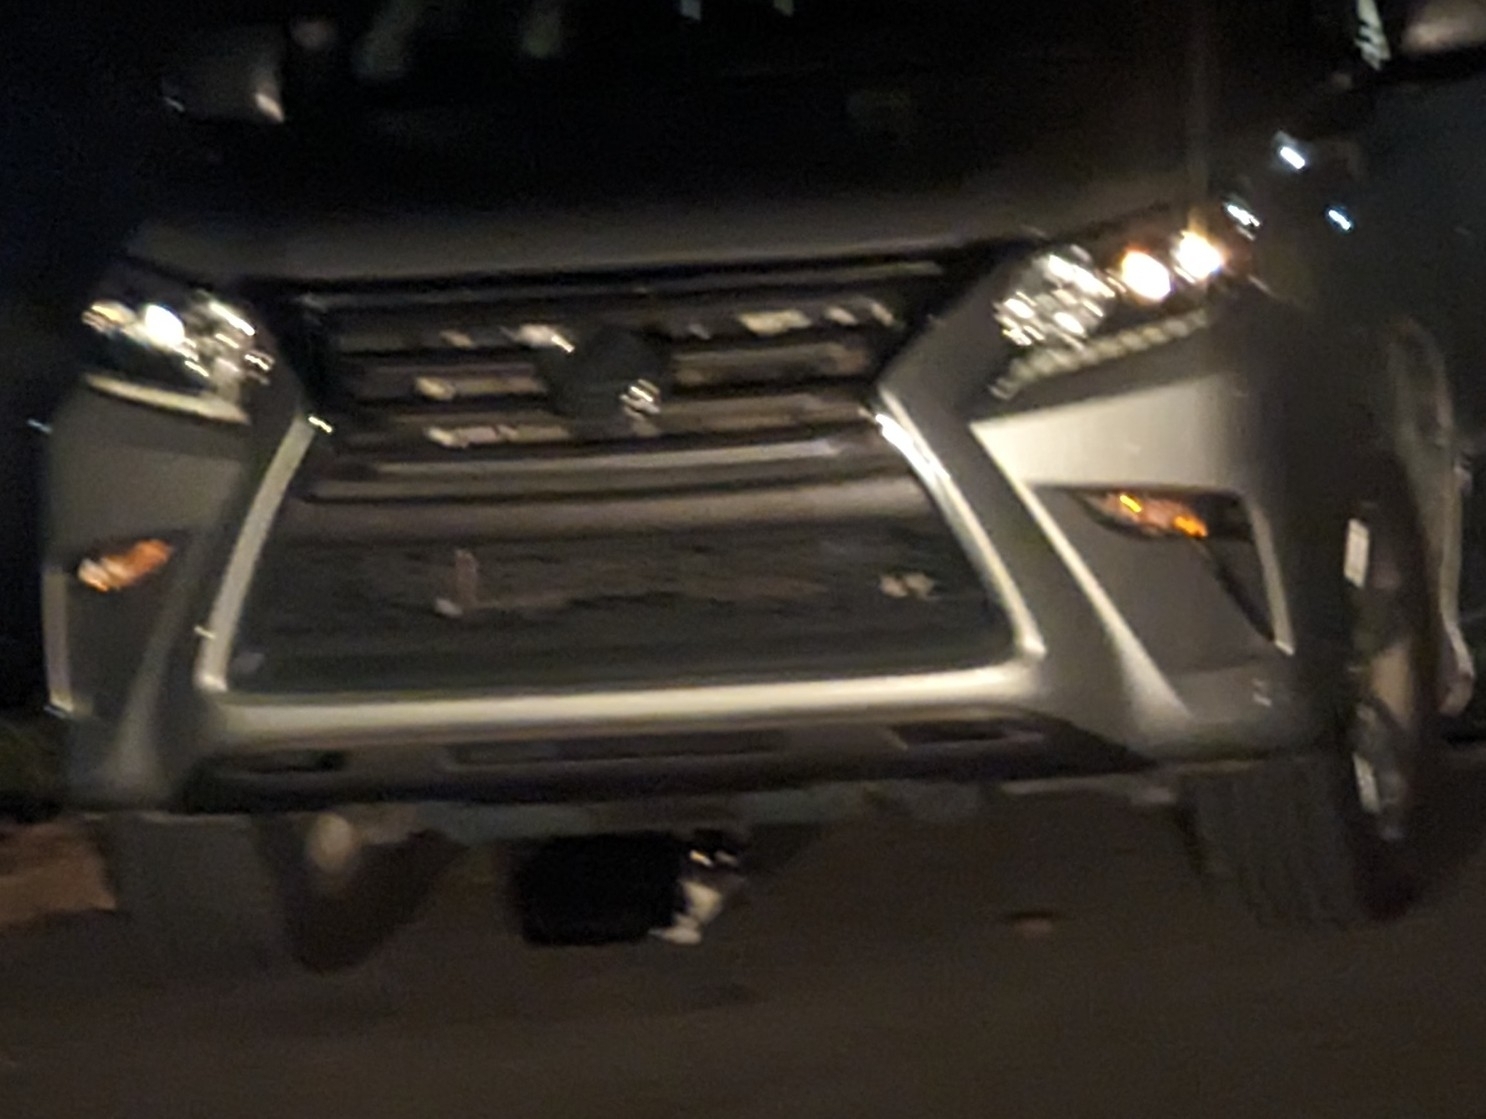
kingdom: Animalia
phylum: Chordata
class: Mammalia
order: Carnivora
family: Felidae
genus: Felis
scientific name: Felis catus
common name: Domestic cat
